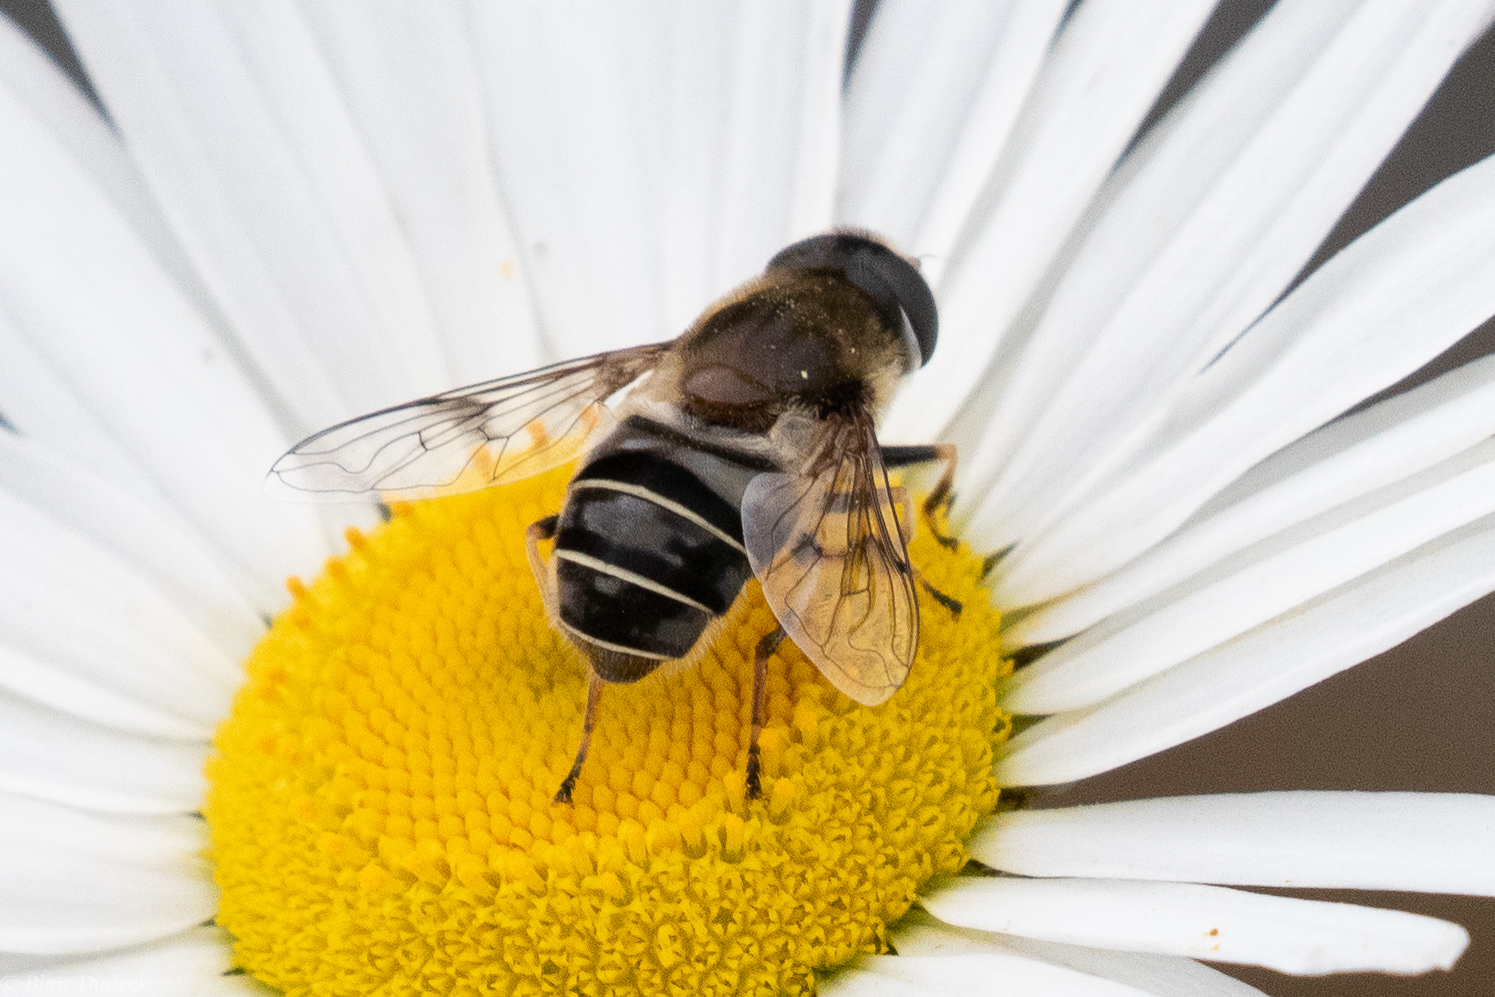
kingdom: Animalia
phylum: Arthropoda
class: Insecta
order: Diptera
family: Syrphidae
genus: Eristalis
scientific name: Eristalis obscura
